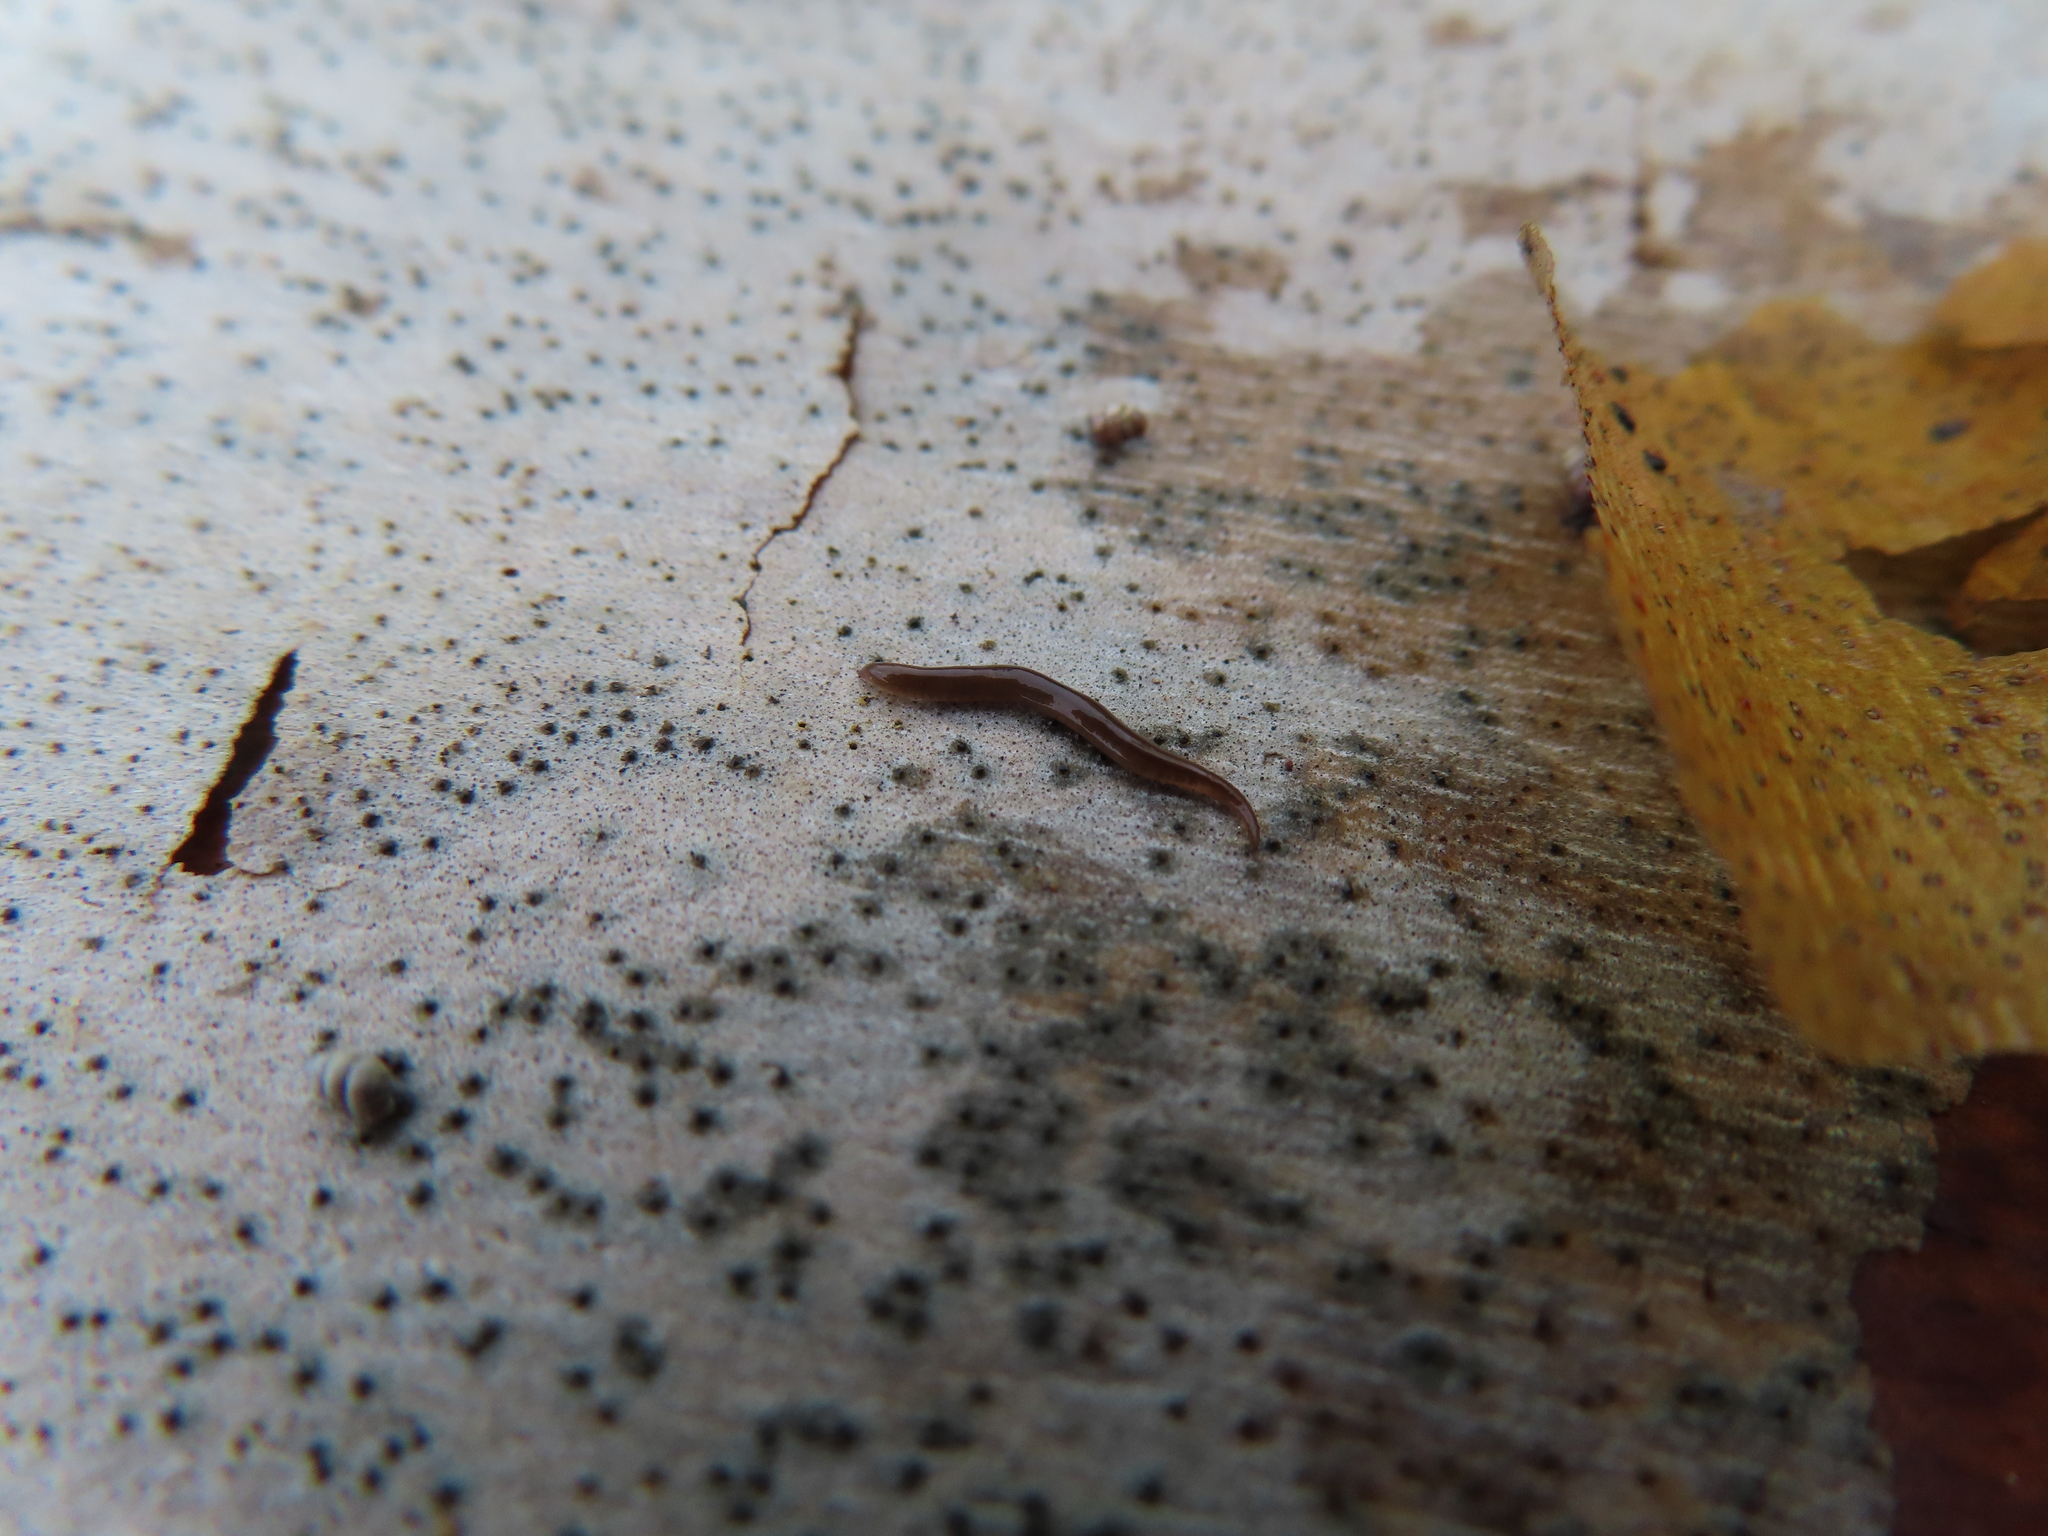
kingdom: Animalia
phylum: Platyhelminthes
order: Tricladida
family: Geoplanidae
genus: Rhynchodemus
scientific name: Rhynchodemus sylvaticus
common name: A flatworm
